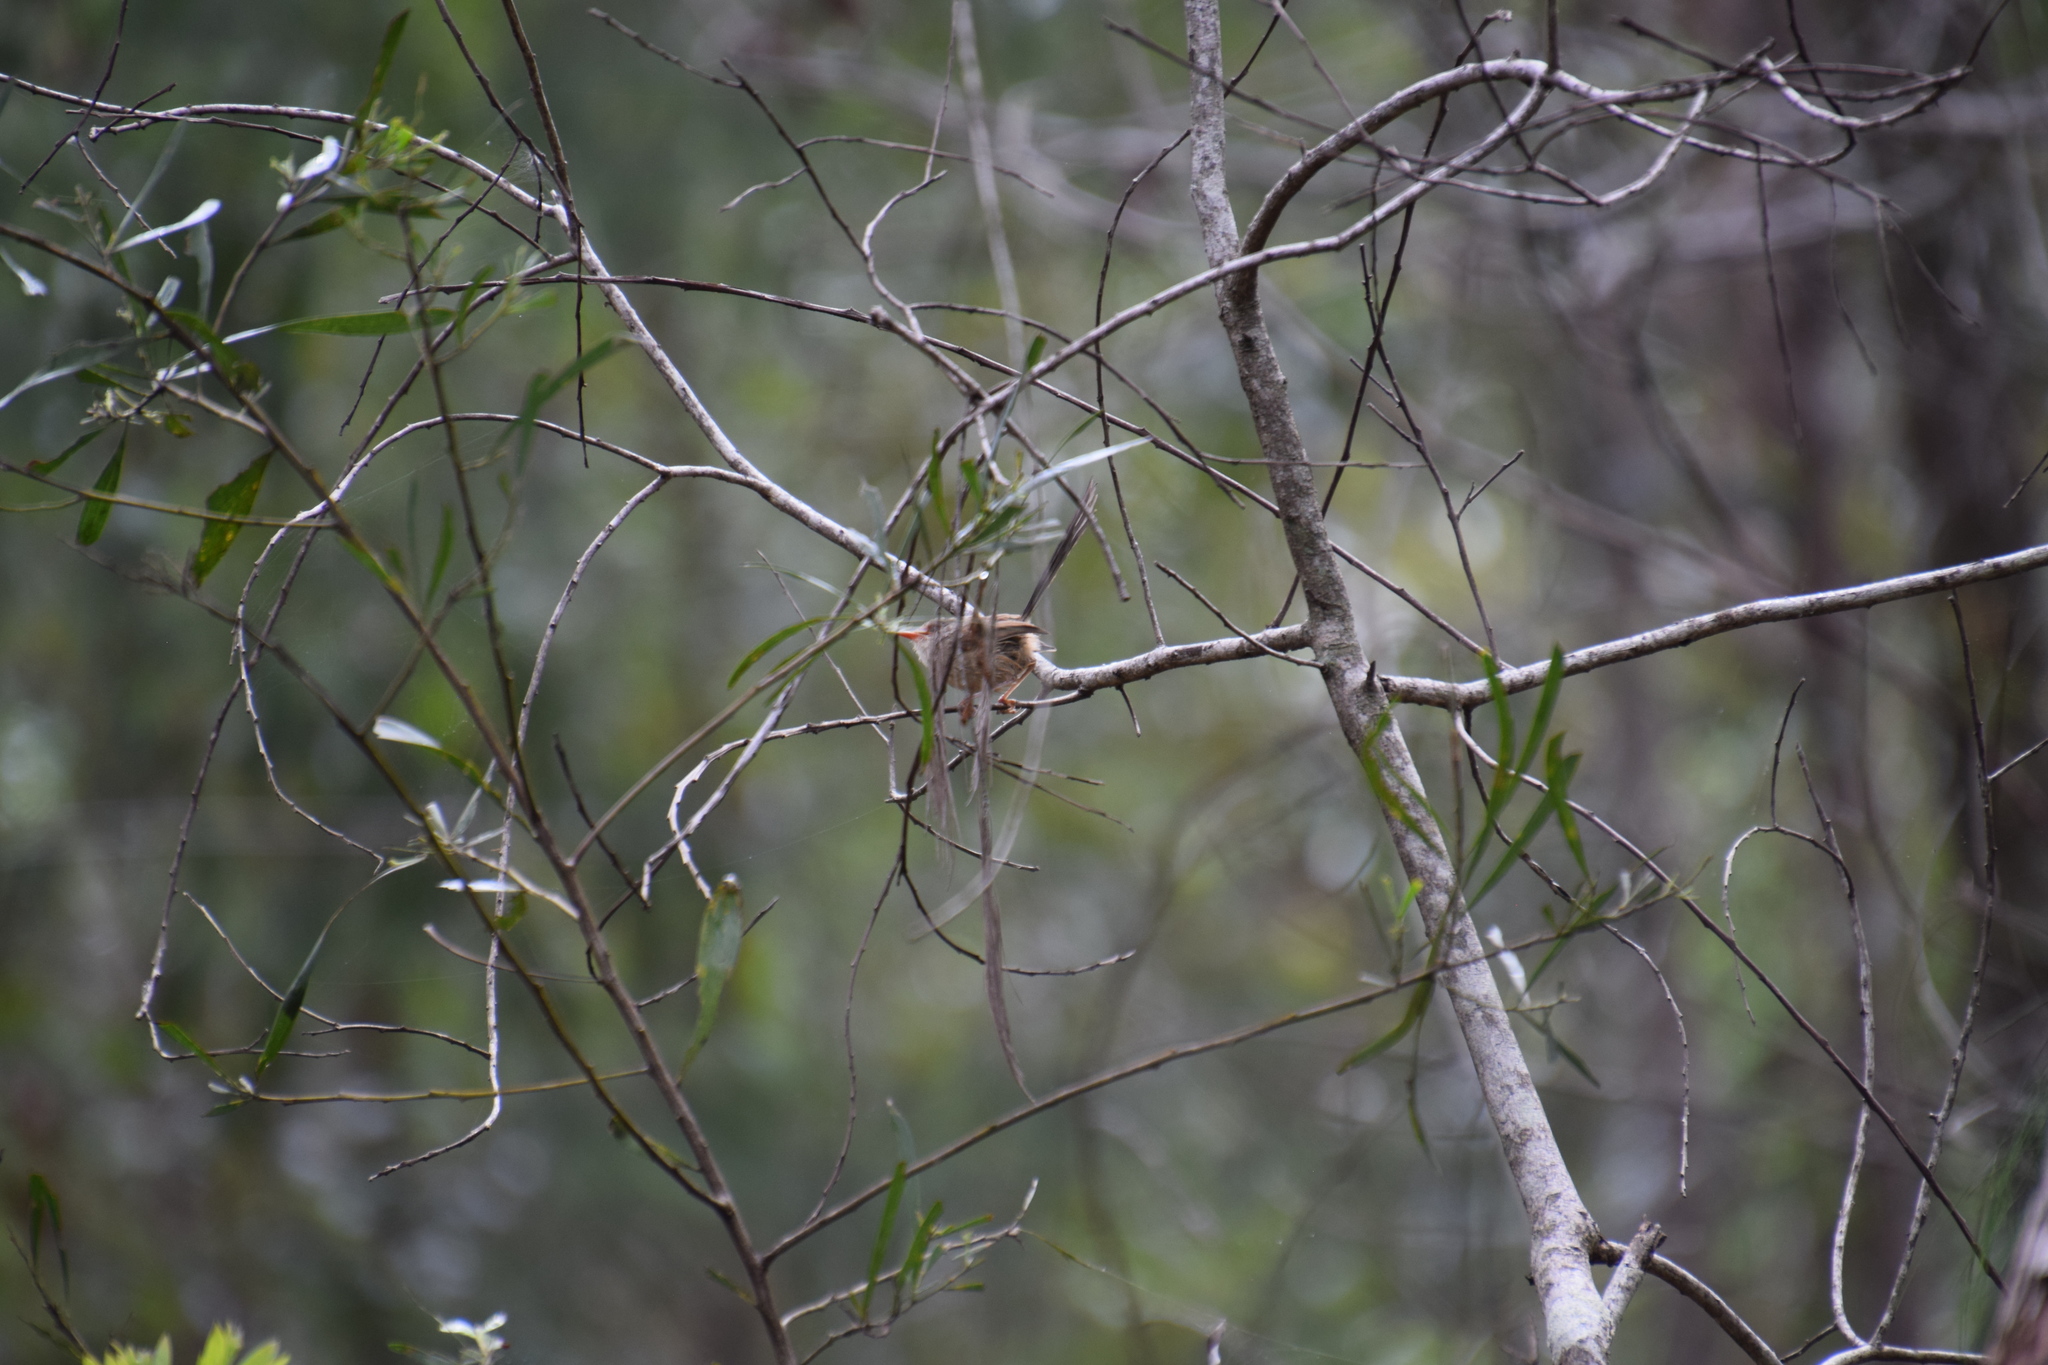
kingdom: Animalia
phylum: Chordata
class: Aves
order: Passeriformes
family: Maluridae
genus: Malurus
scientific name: Malurus lamberti
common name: Variegated fairywren
